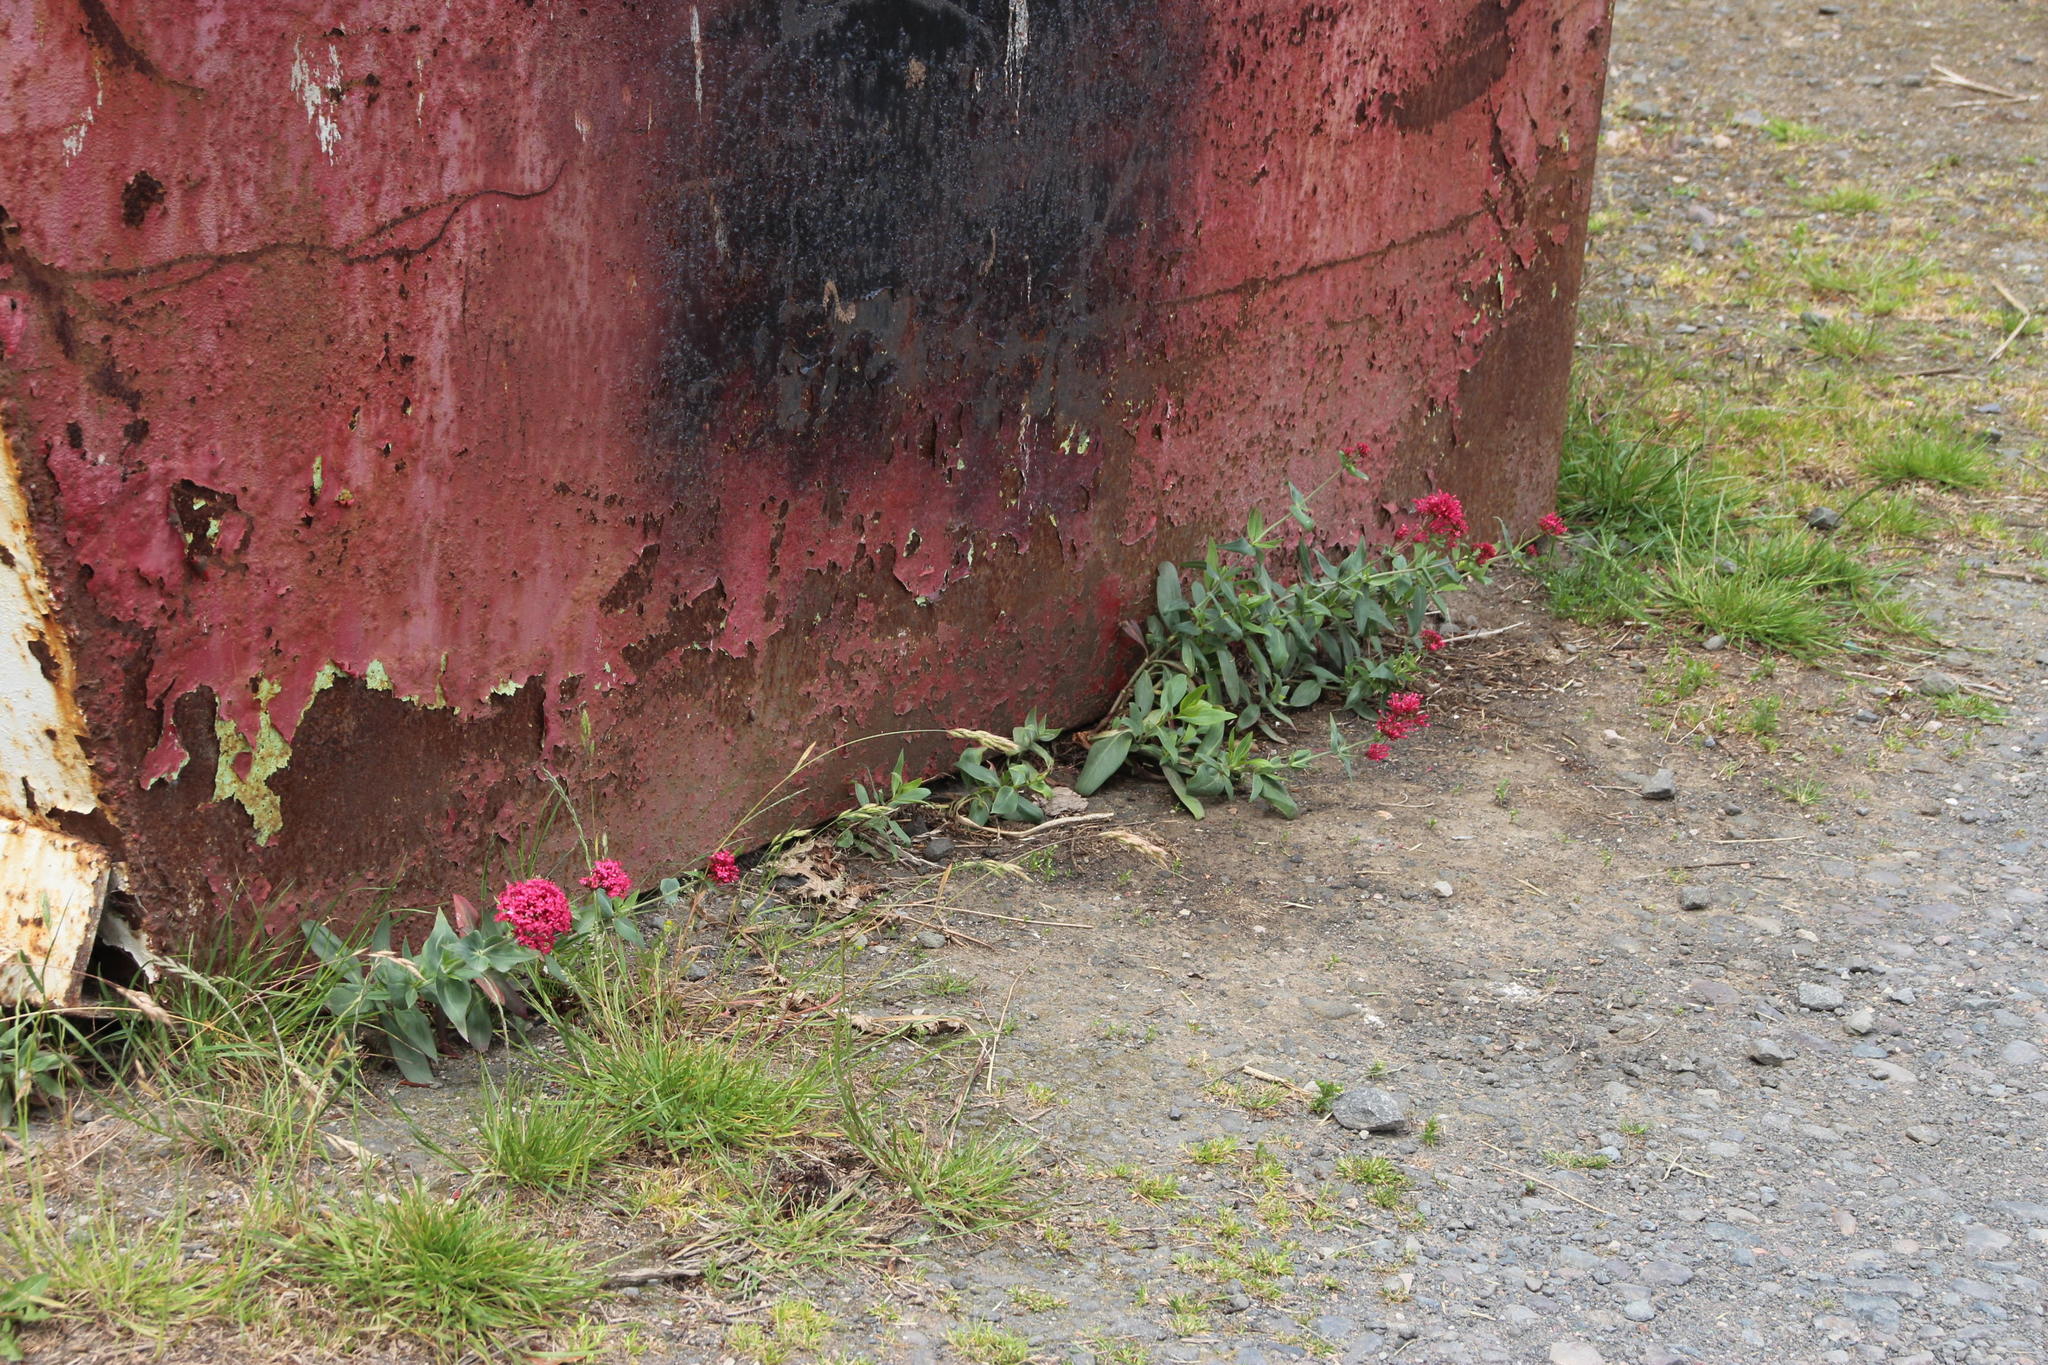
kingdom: Plantae
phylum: Tracheophyta
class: Magnoliopsida
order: Dipsacales
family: Caprifoliaceae
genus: Centranthus
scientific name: Centranthus ruber
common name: Red valerian
